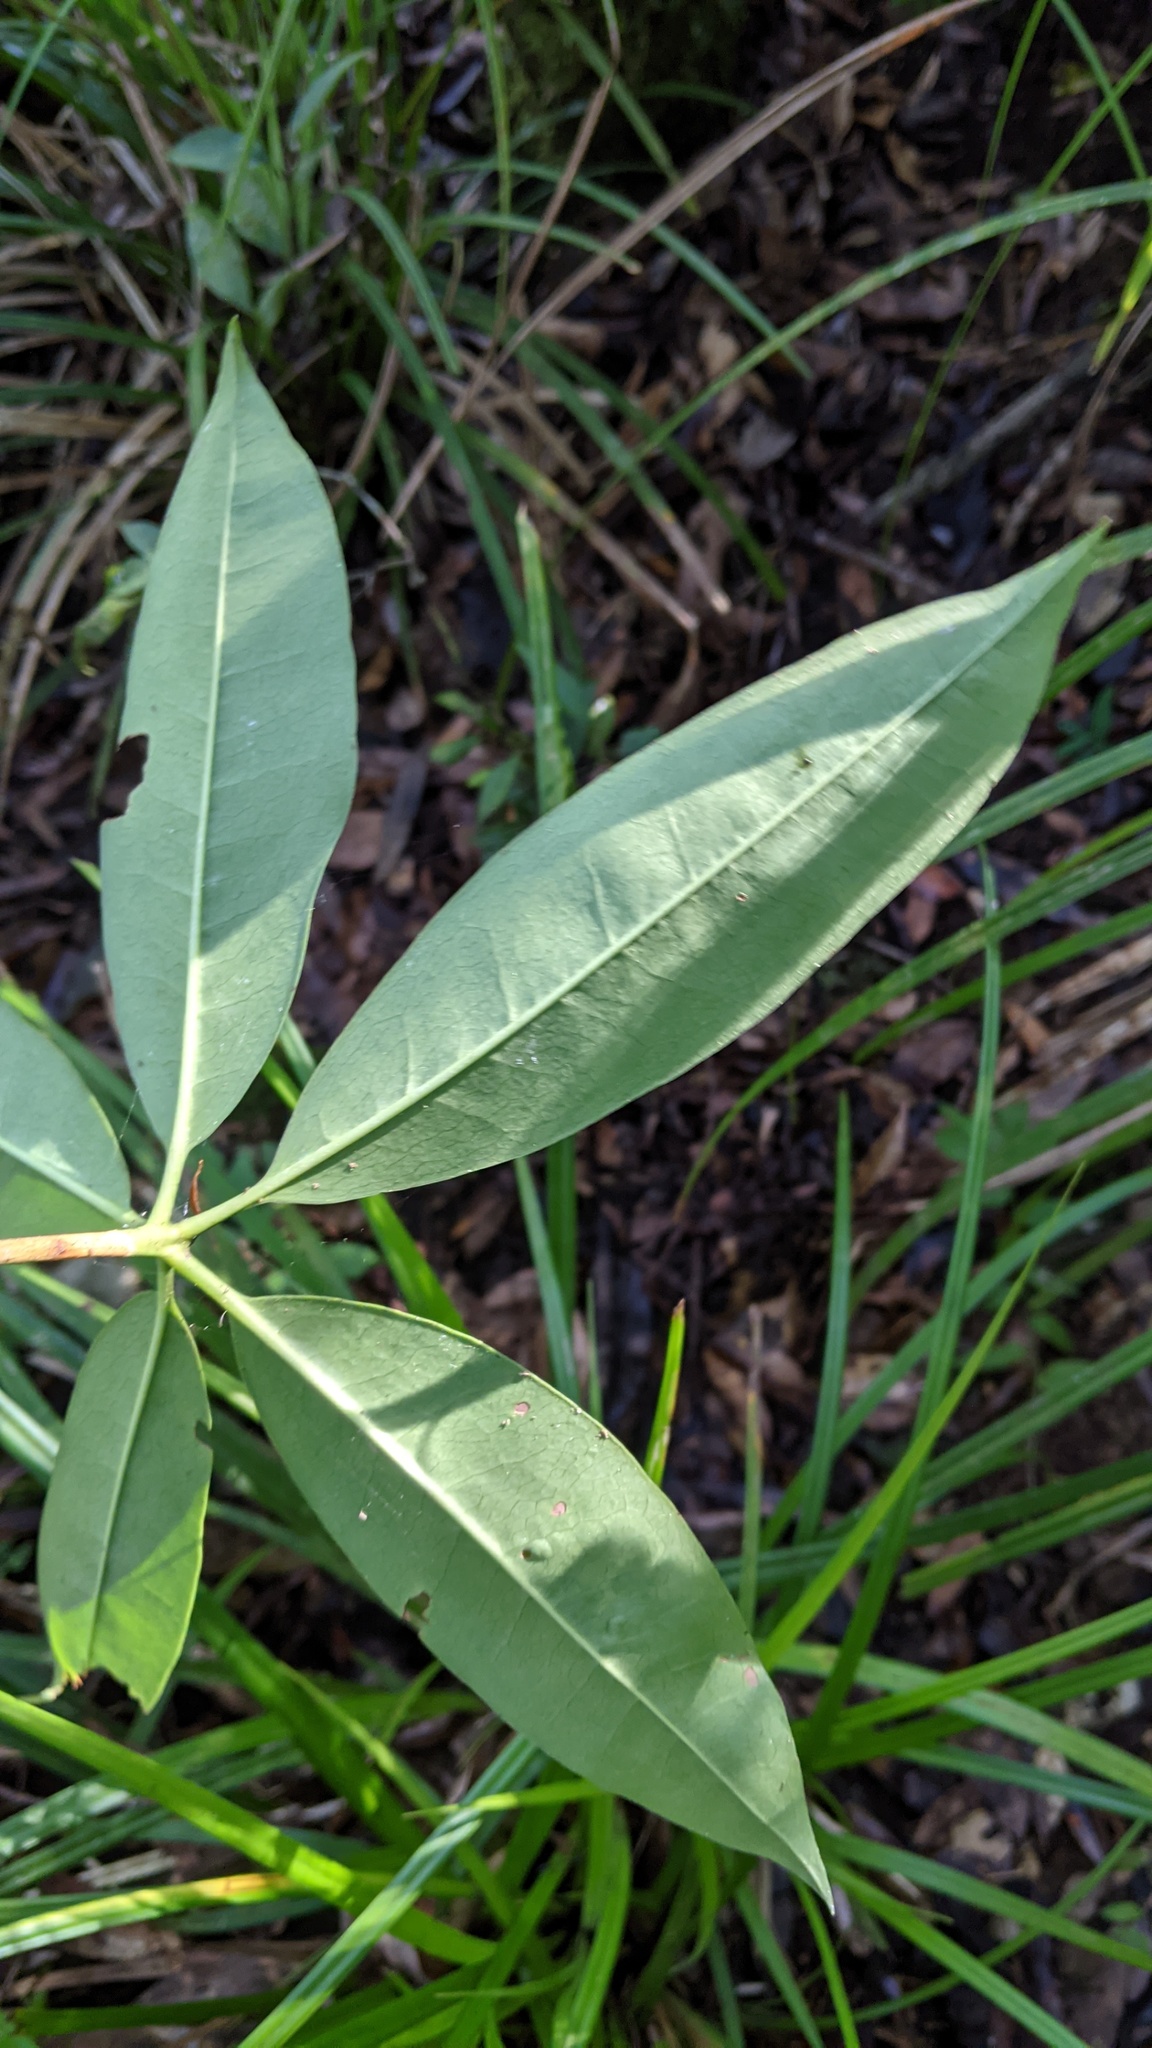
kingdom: Plantae
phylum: Tracheophyta
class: Magnoliopsida
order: Ericales
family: Ericaceae
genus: Rhododendron
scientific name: Rhododendron latoucheae
